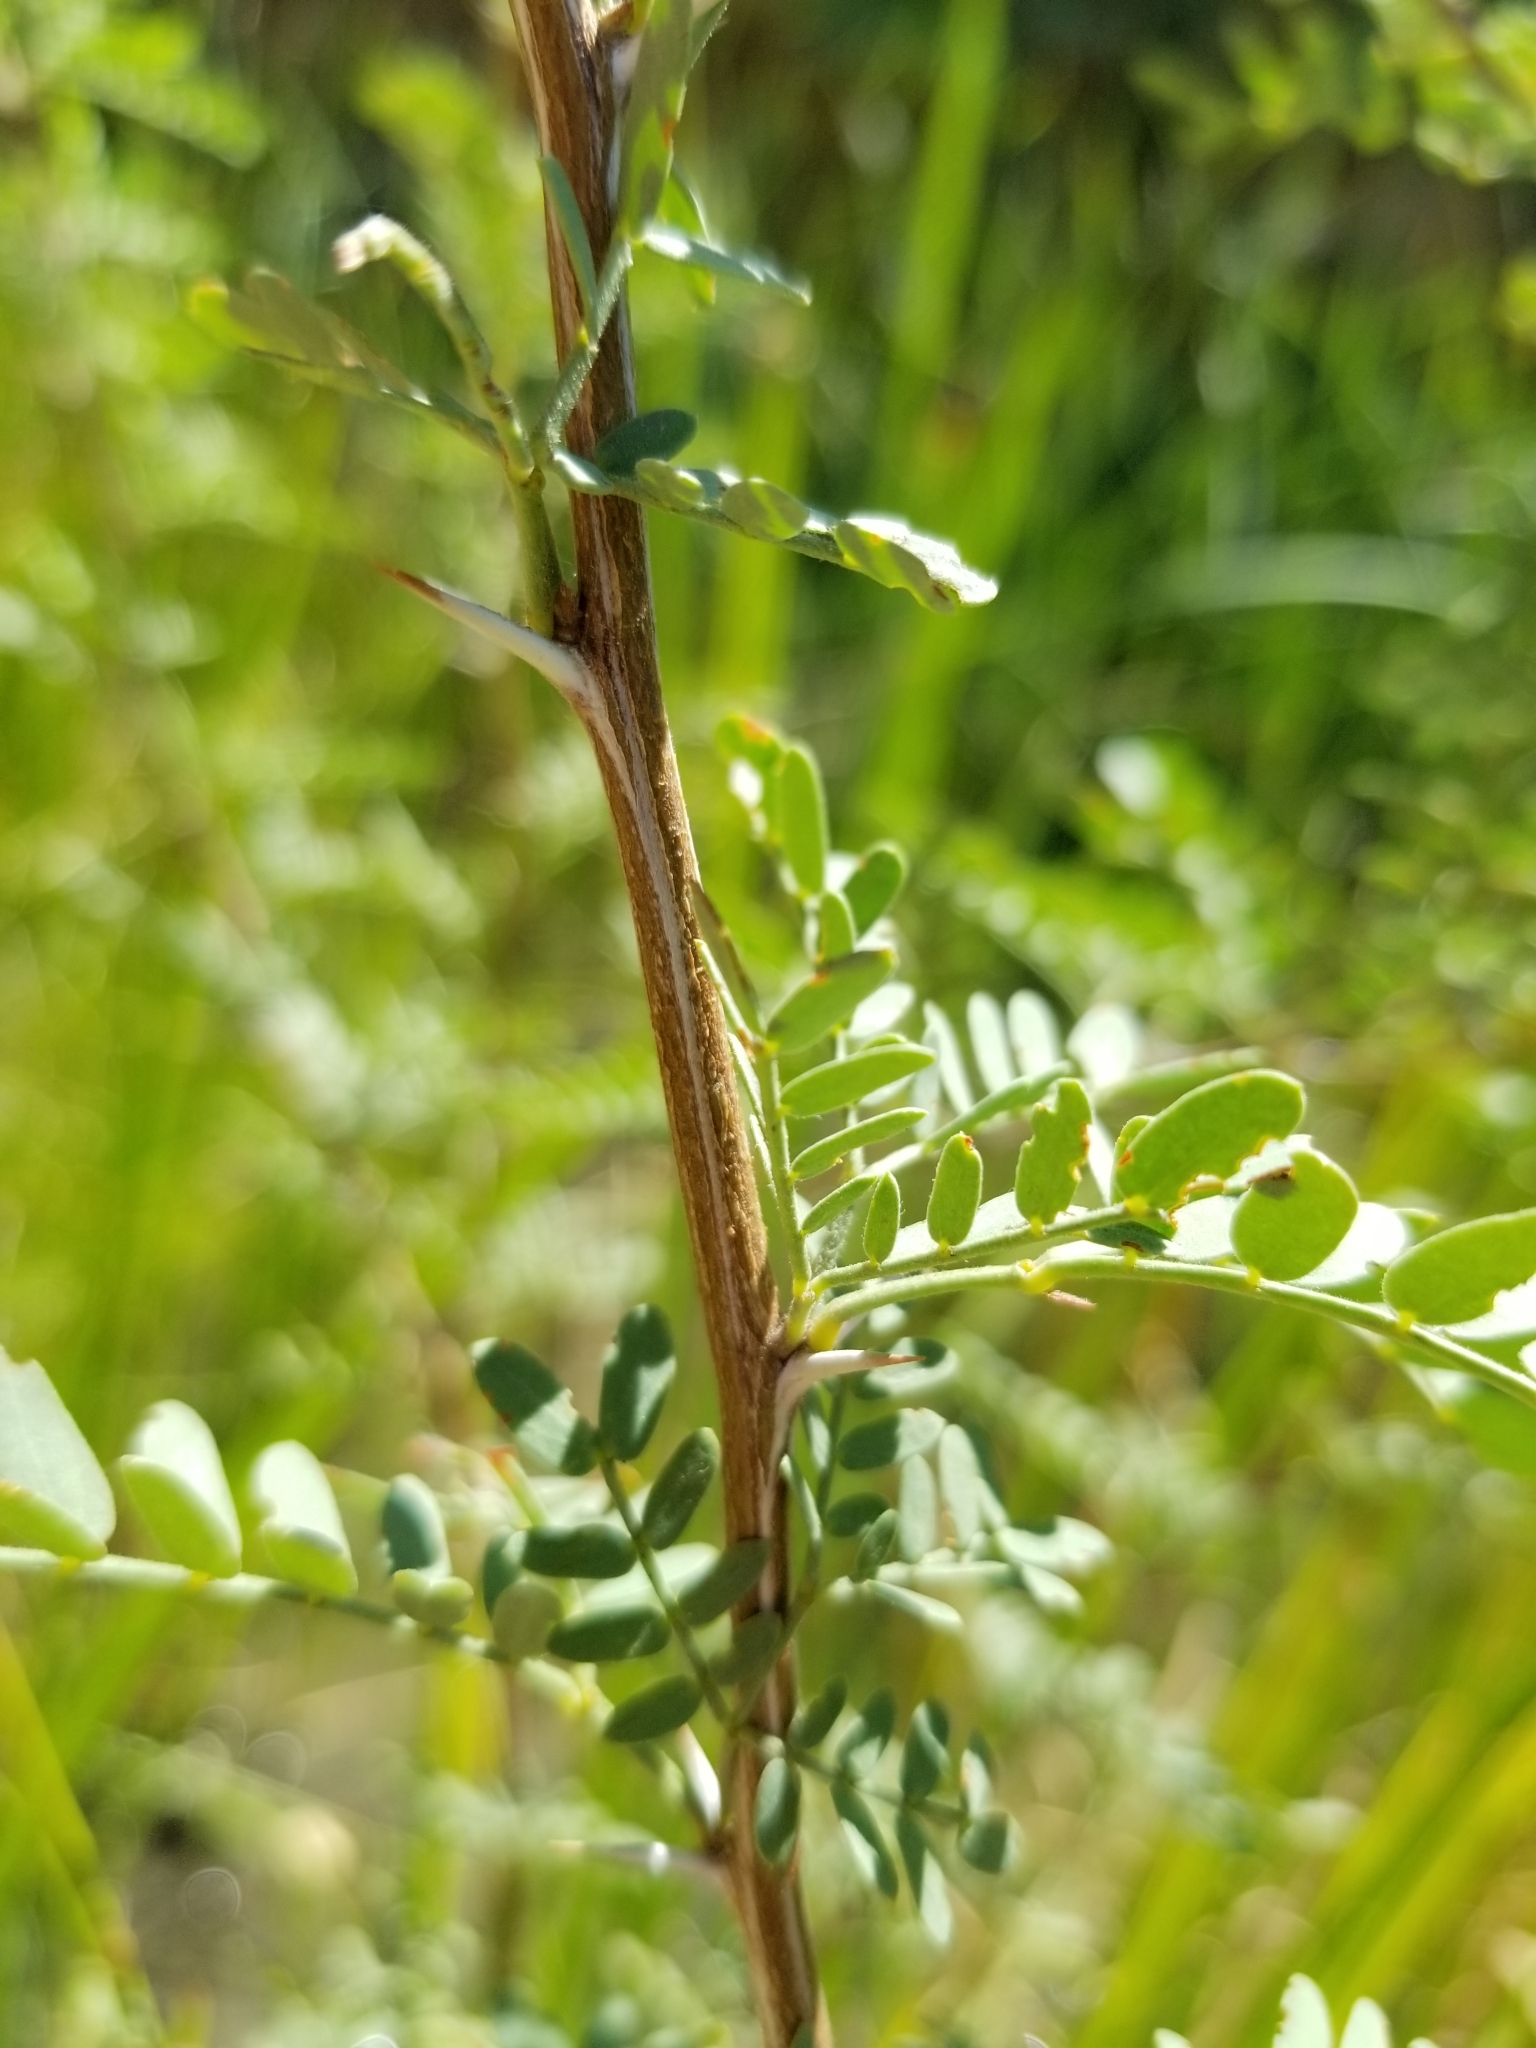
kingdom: Plantae
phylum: Tracheophyta
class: Magnoliopsida
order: Fabales
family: Fabaceae
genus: Prosopis
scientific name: Prosopis pubescens
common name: Screw-bean
